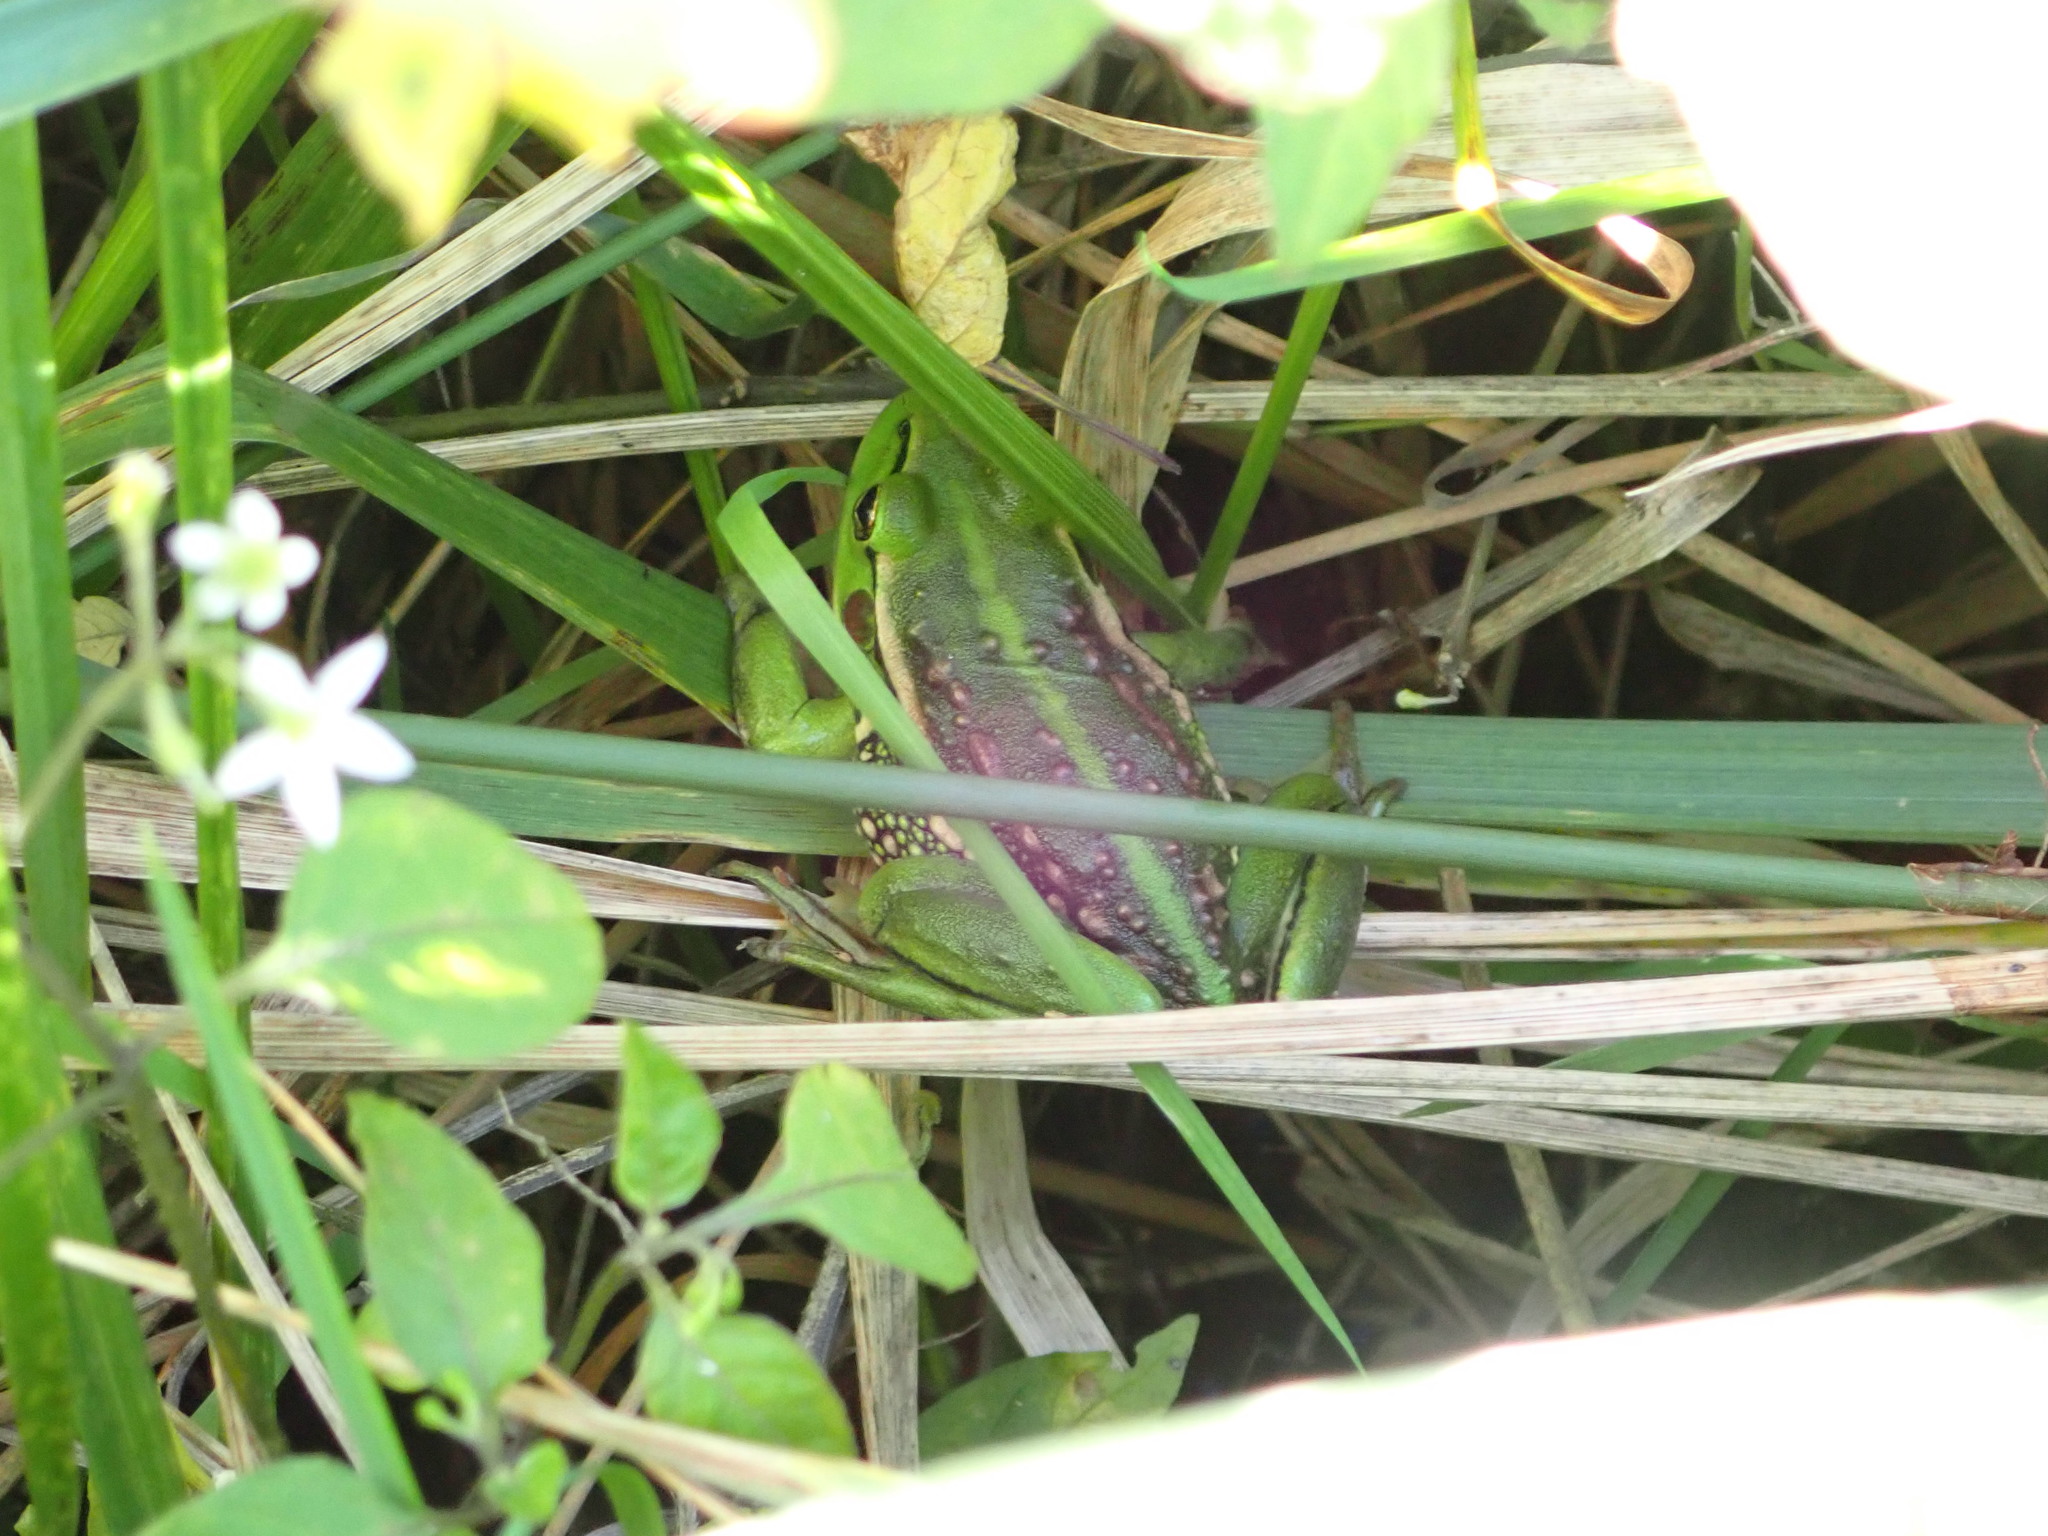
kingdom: Animalia
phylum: Chordata
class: Amphibia
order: Anura
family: Pelodryadidae
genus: Ranoidea
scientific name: Ranoidea raniformis
